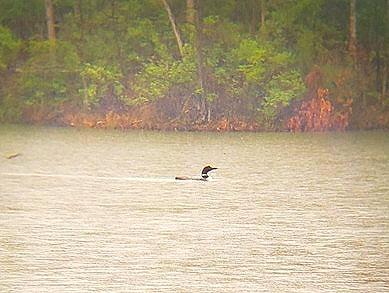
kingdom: Animalia
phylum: Chordata
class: Aves
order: Gaviiformes
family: Gaviidae
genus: Gavia
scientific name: Gavia immer
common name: Common loon
